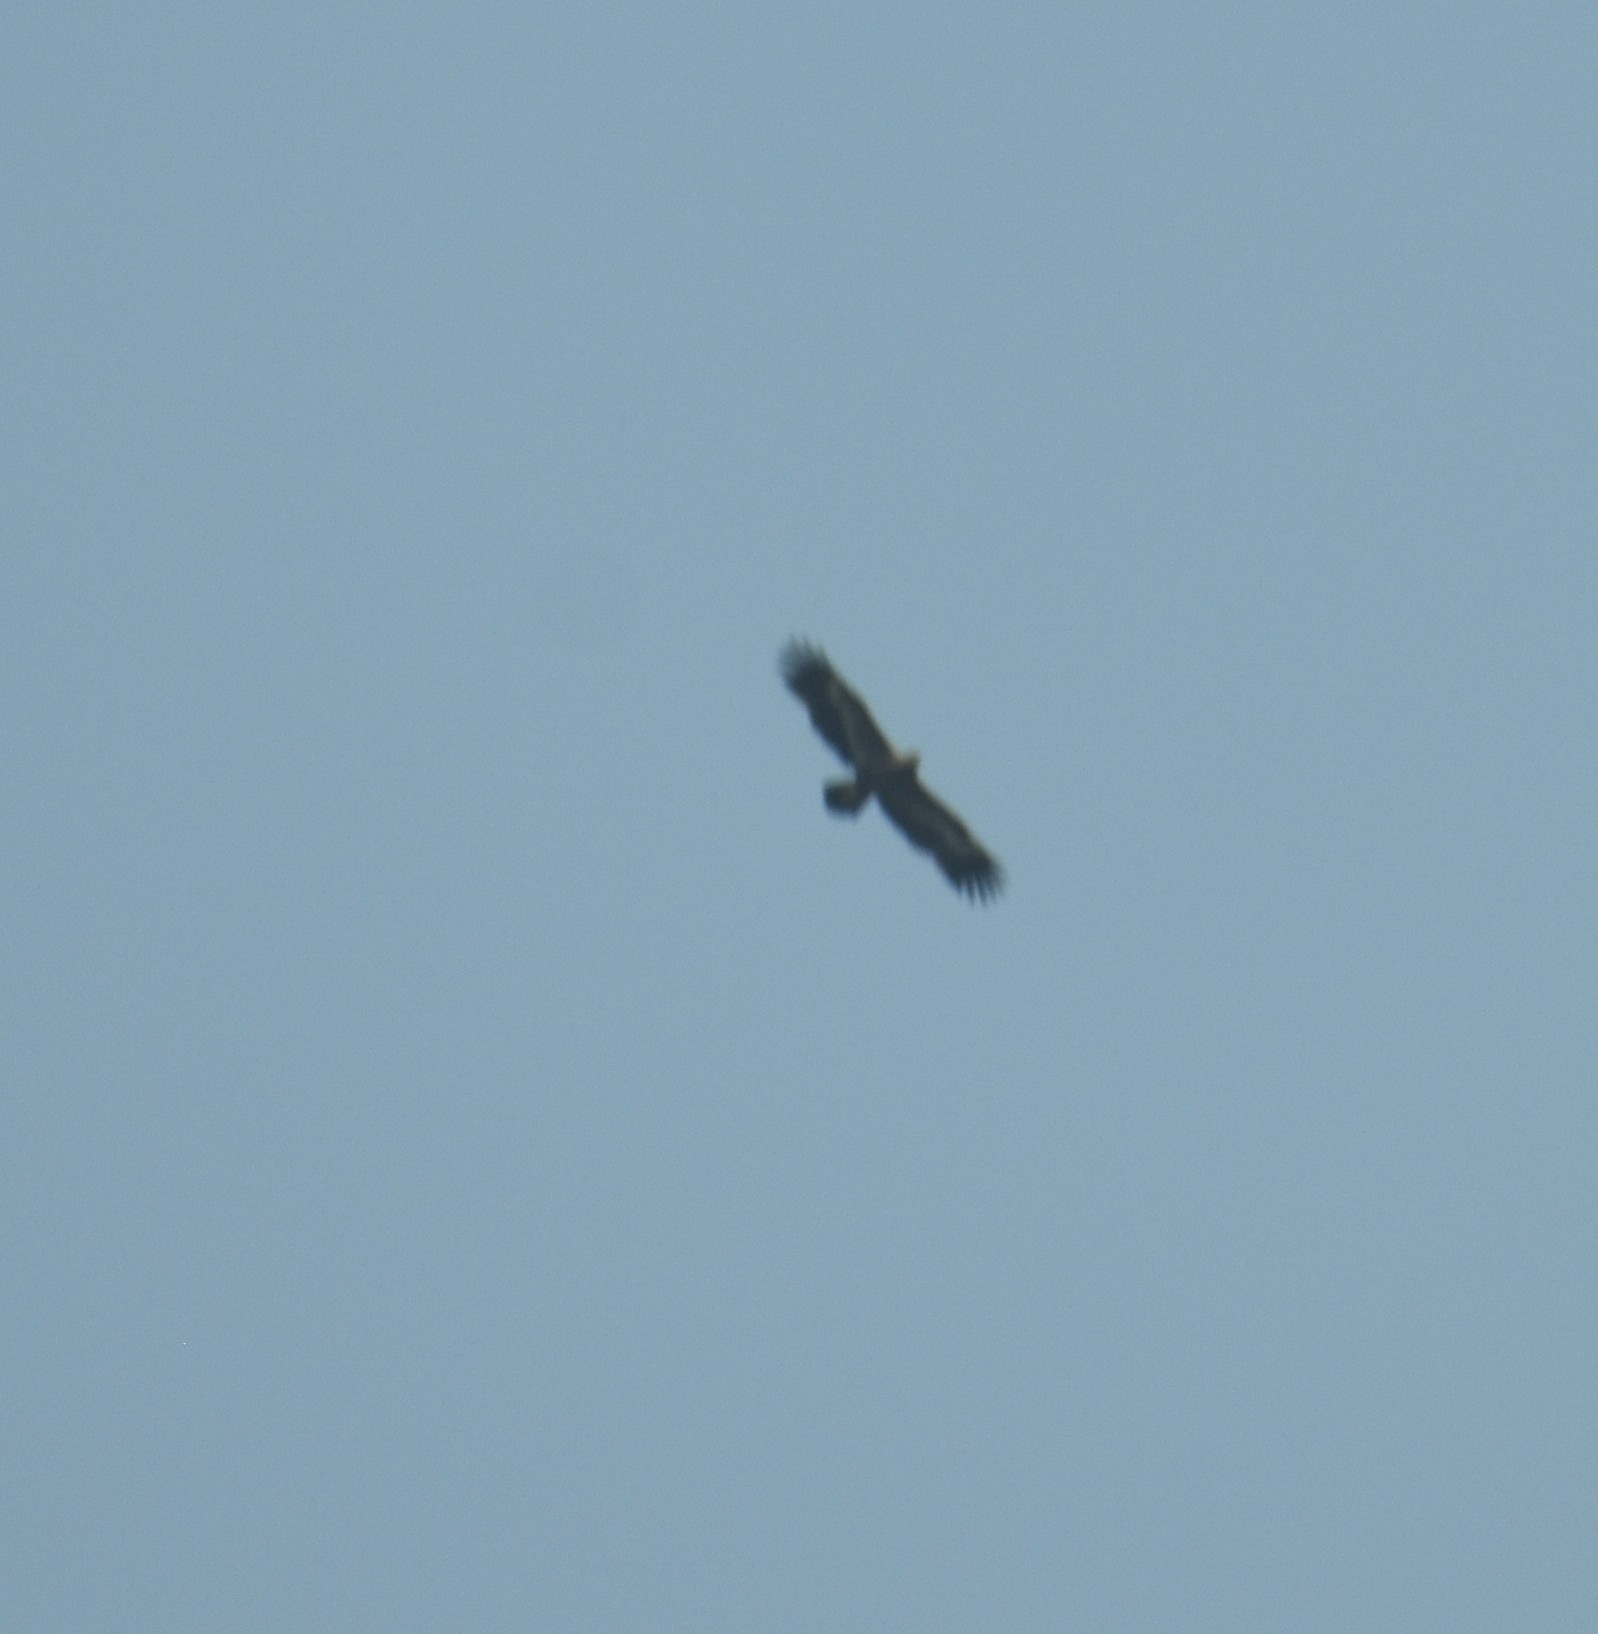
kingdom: Animalia
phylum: Chordata
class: Aves
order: Accipitriformes
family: Accipitridae
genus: Aquila
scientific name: Aquila nipalensis
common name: Steppe eagle
